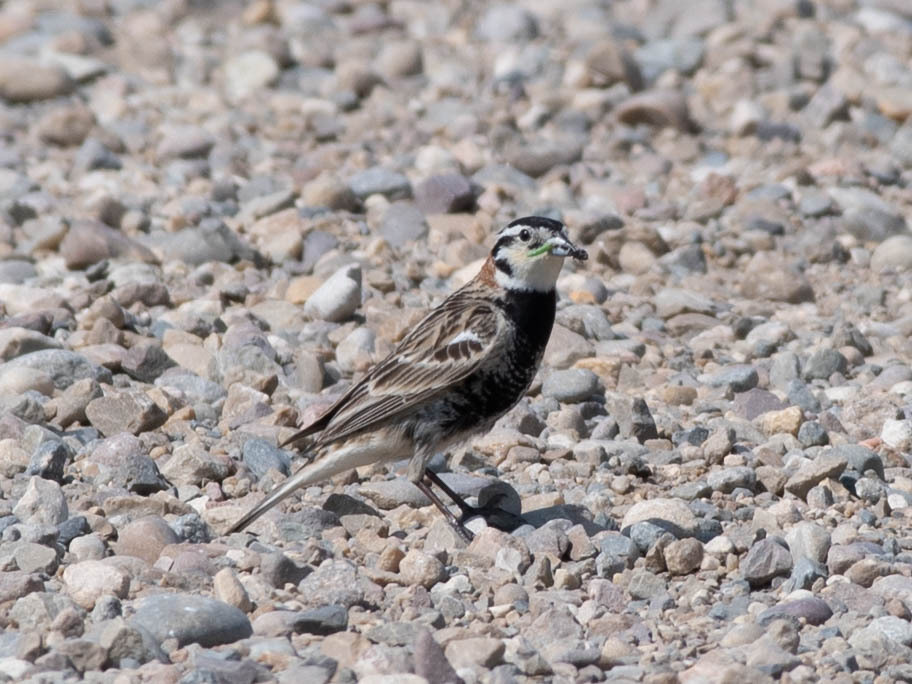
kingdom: Animalia
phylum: Chordata
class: Aves
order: Passeriformes
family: Calcariidae
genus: Calcarius
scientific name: Calcarius ornatus
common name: Chestnut-collared longspur
